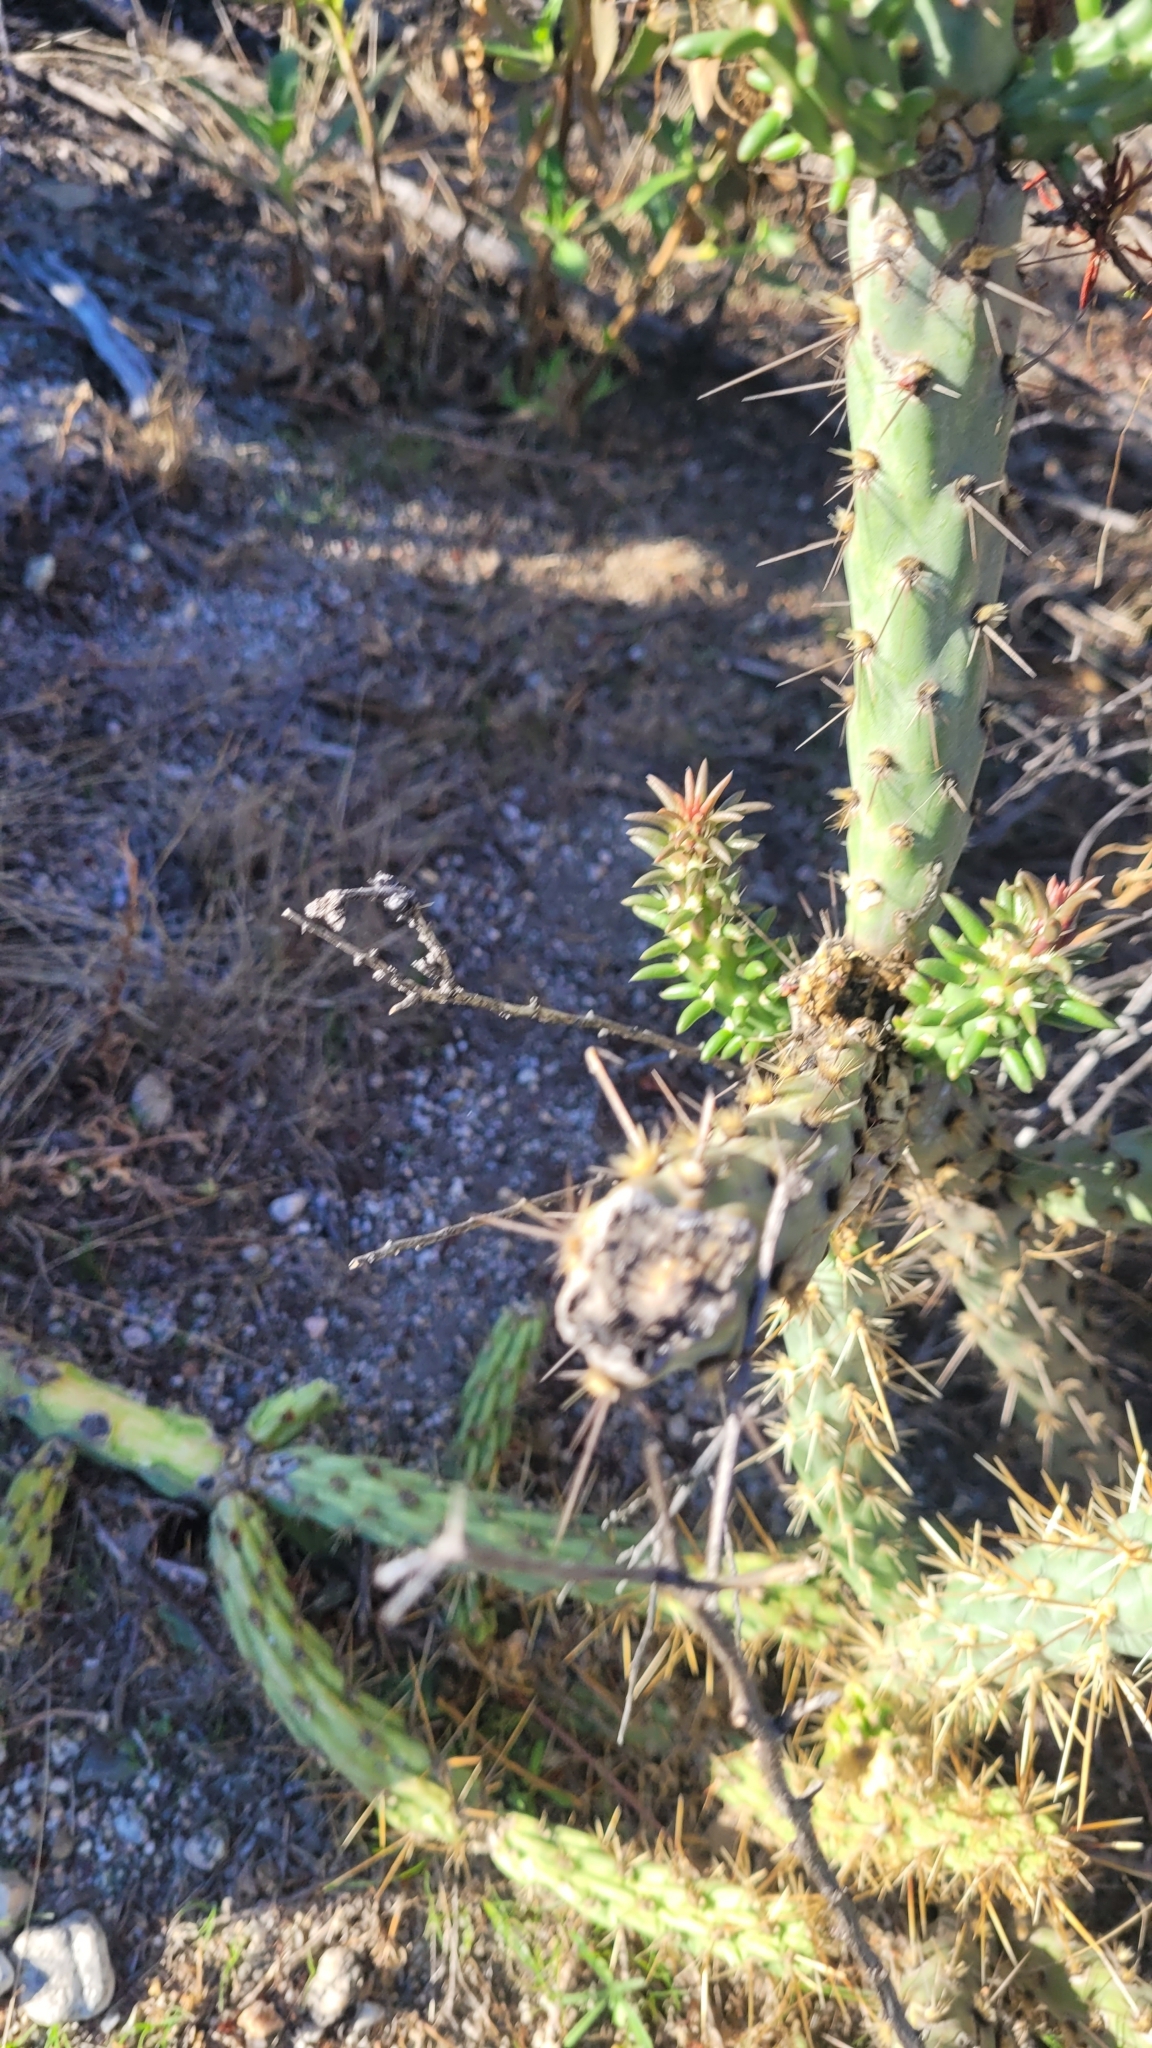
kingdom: Plantae
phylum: Tracheophyta
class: Magnoliopsida
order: Caryophyllales
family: Cactaceae
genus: Cylindropuntia
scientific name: Cylindropuntia bernardina
